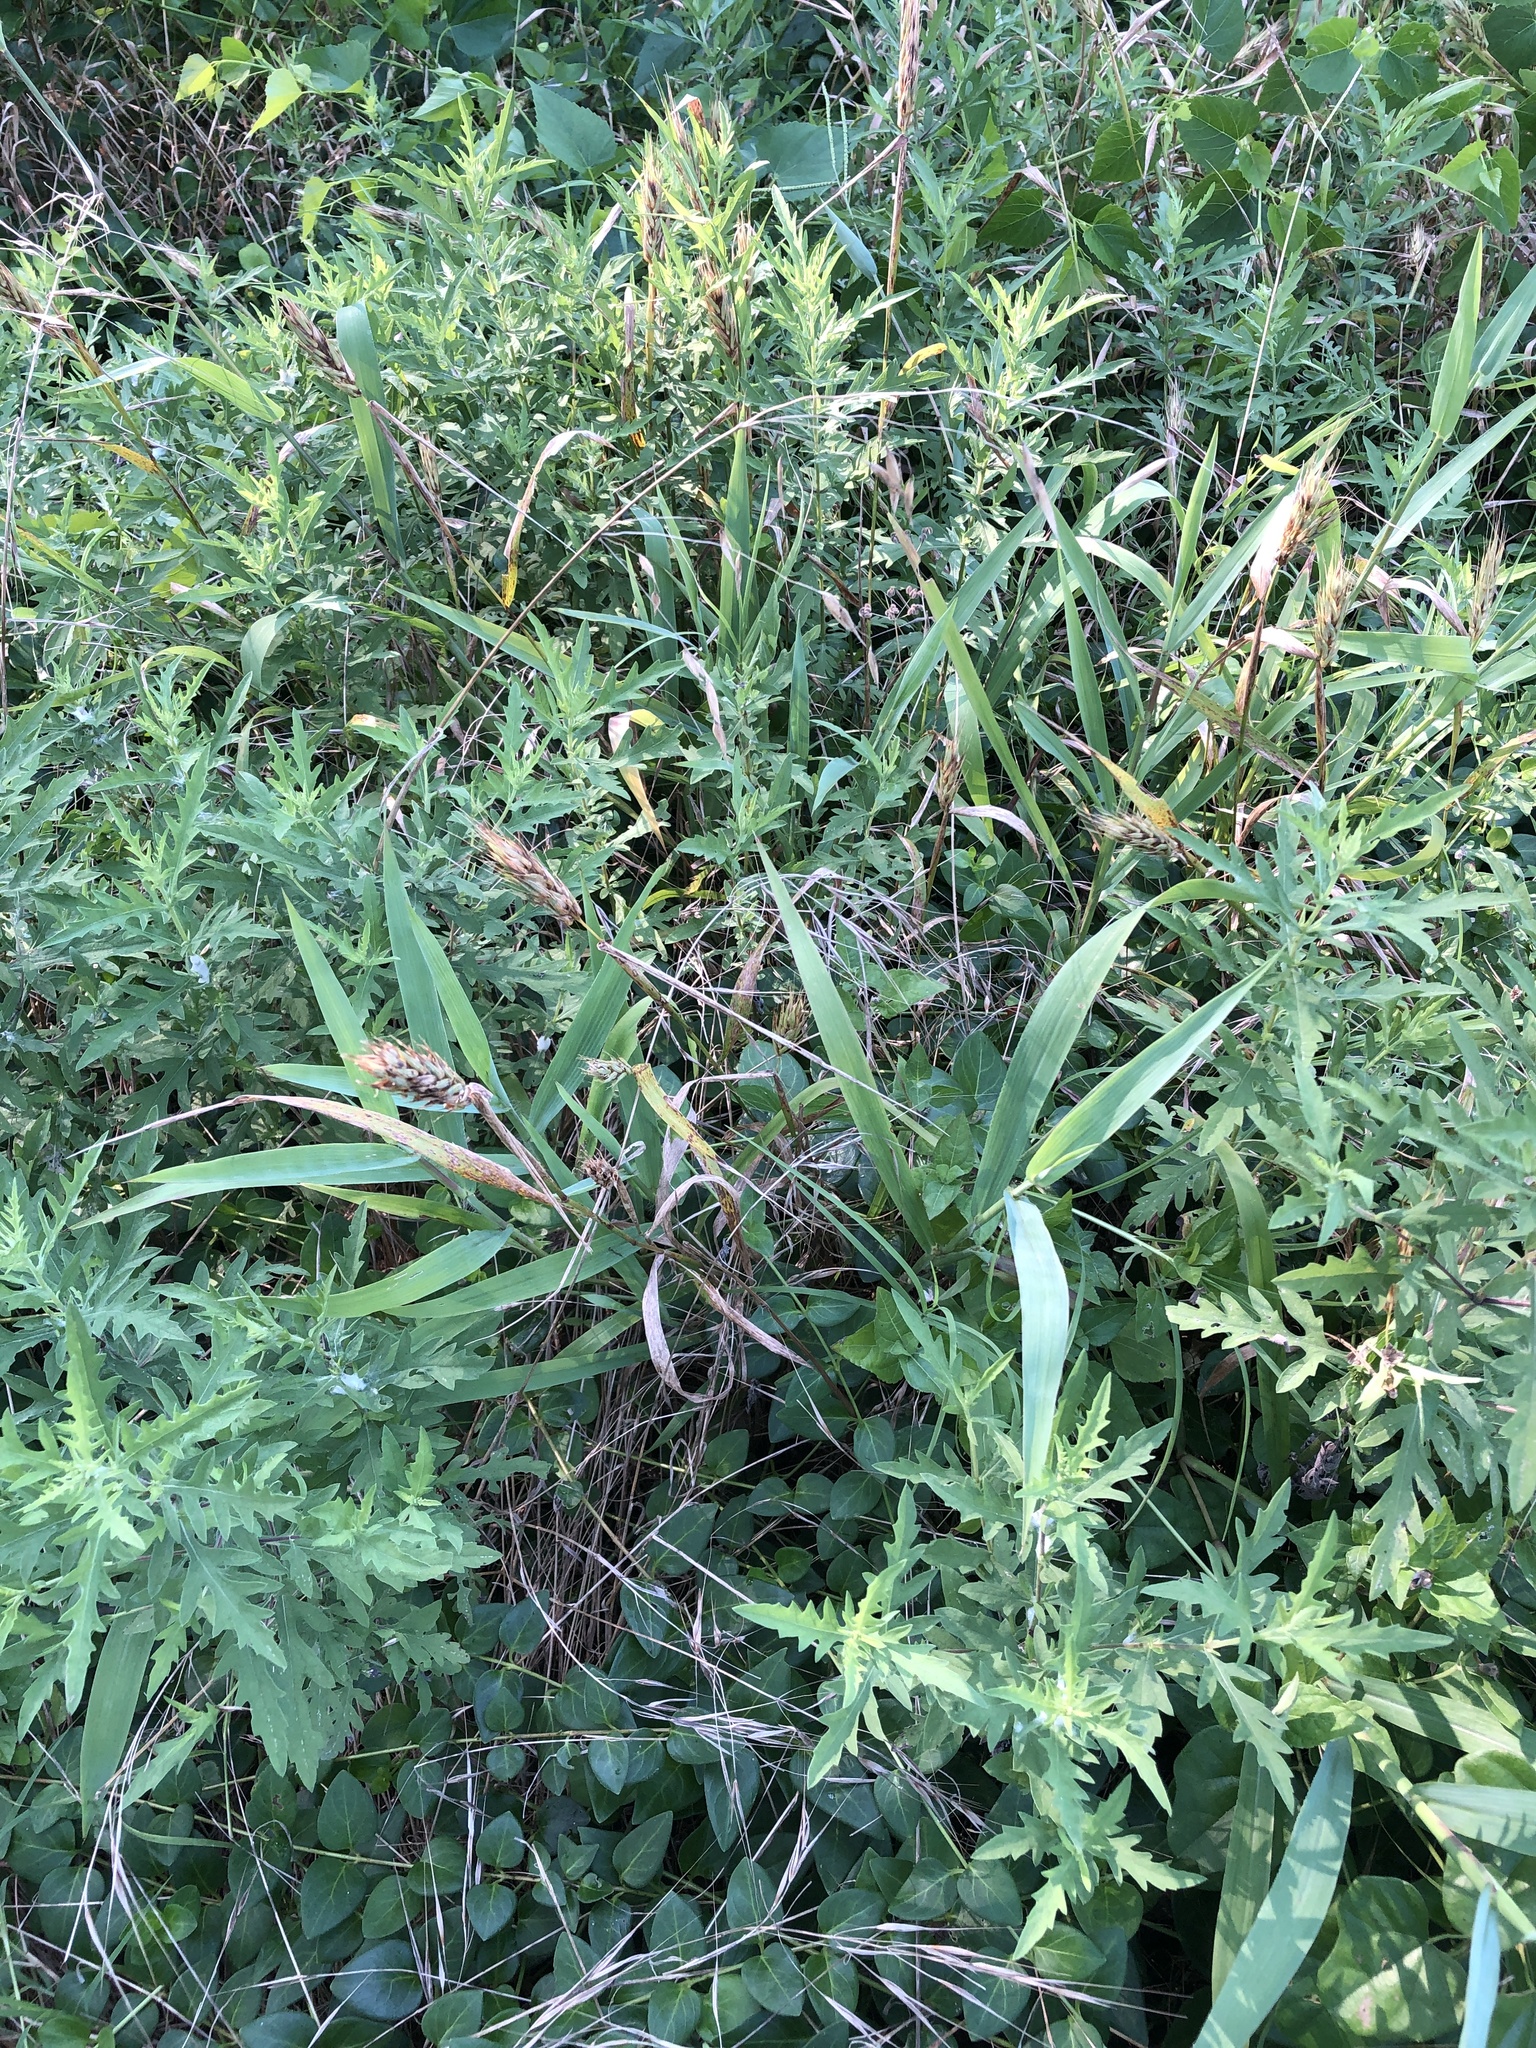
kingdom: Plantae
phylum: Tracheophyta
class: Liliopsida
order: Poales
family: Poaceae
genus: Elymus
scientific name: Elymus virginicus
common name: Common eastern wildrye
